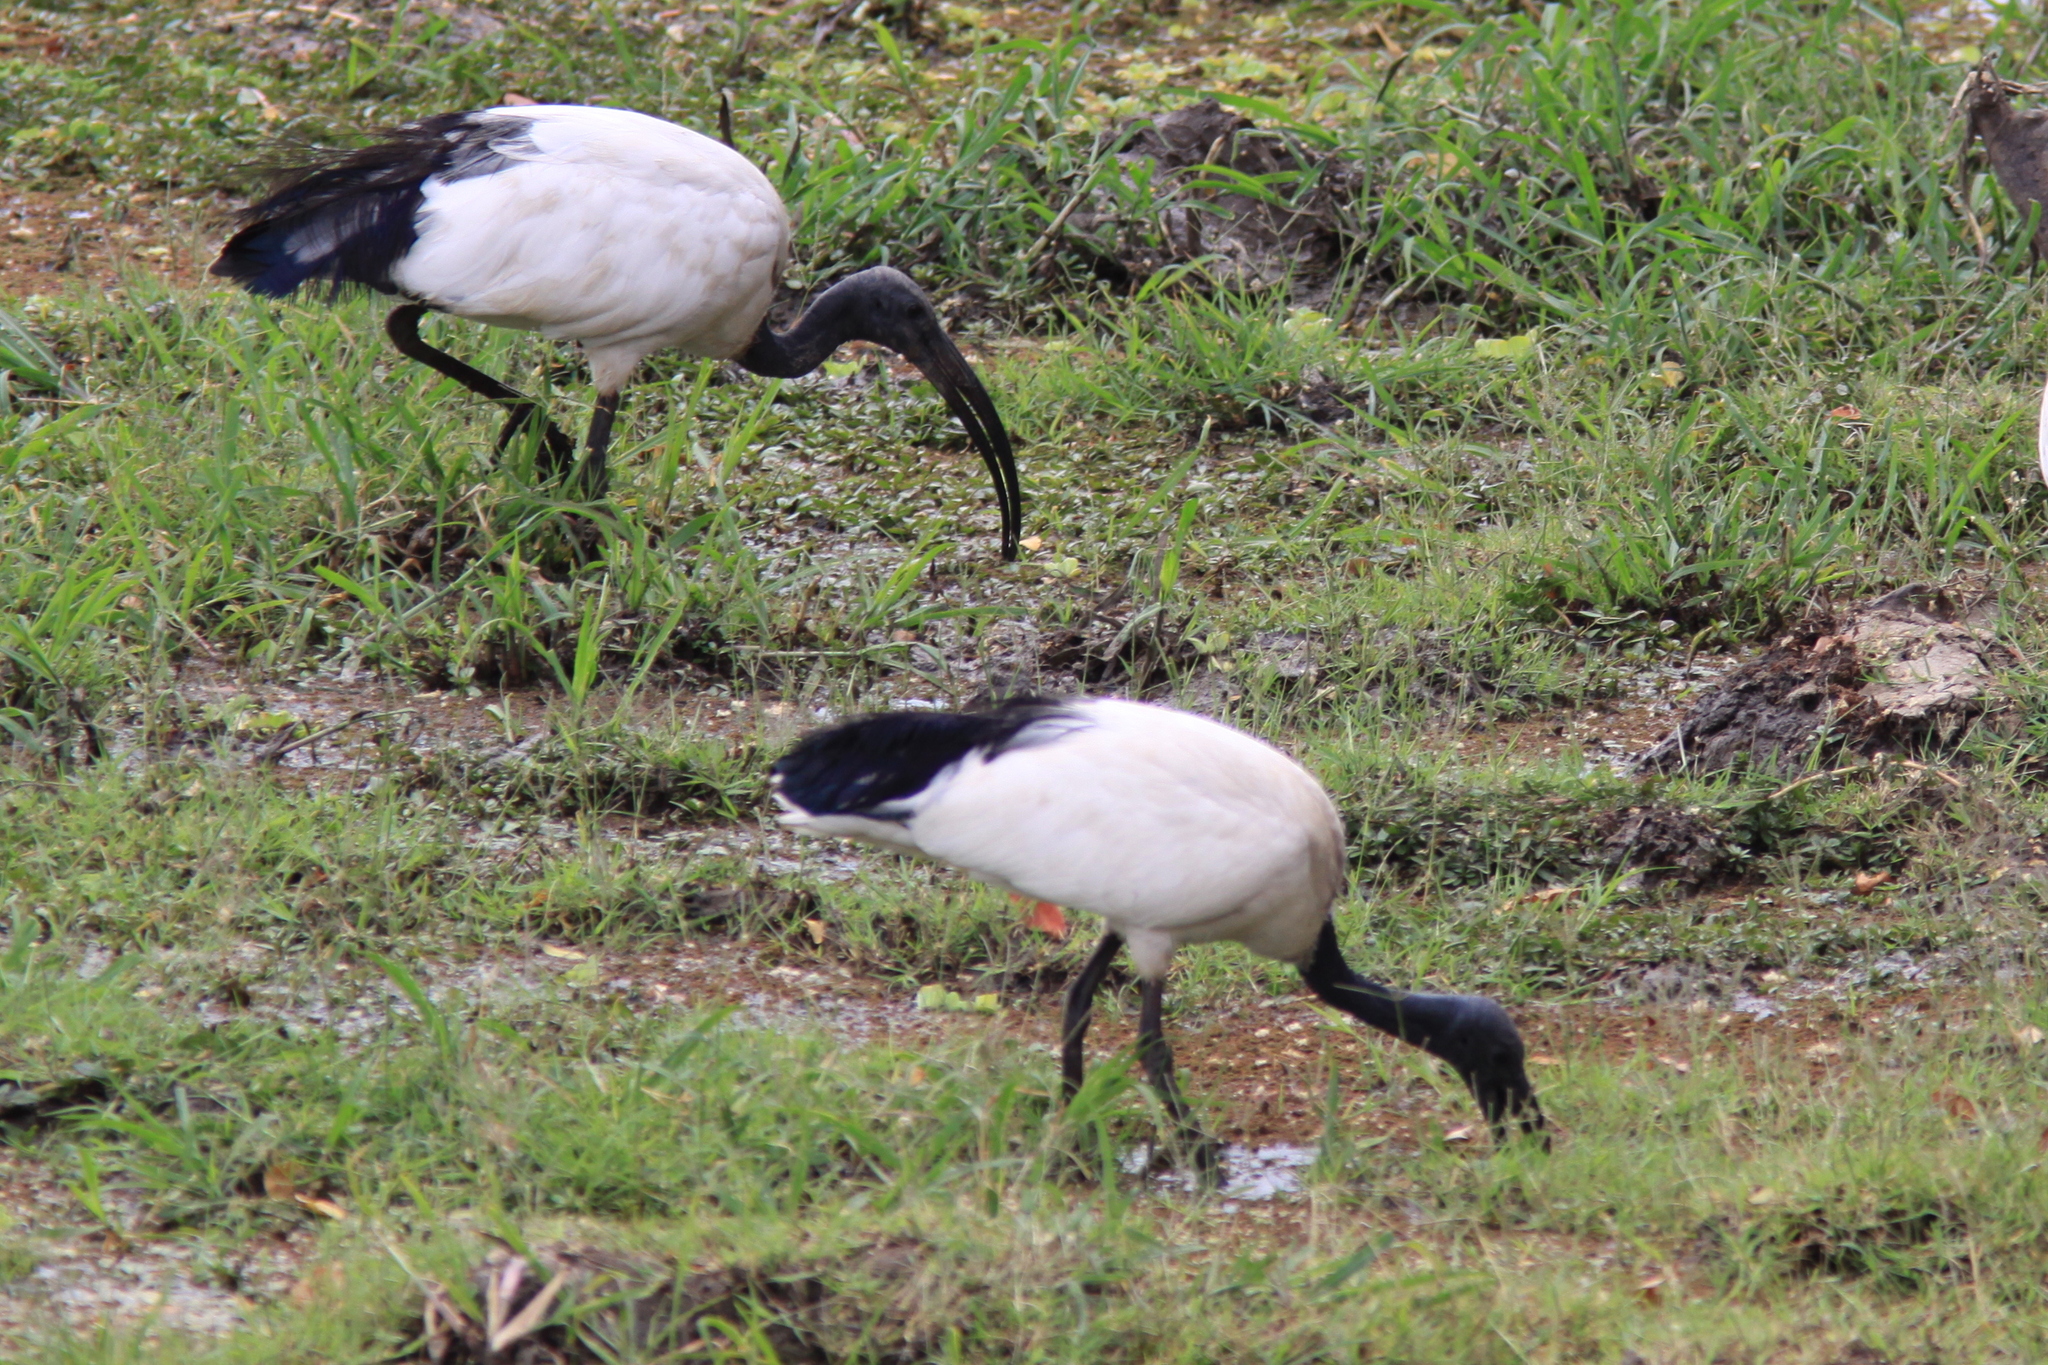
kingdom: Animalia
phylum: Chordata
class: Aves
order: Pelecaniformes
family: Threskiornithidae
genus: Threskiornis
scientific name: Threskiornis aethiopicus
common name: Sacred ibis
